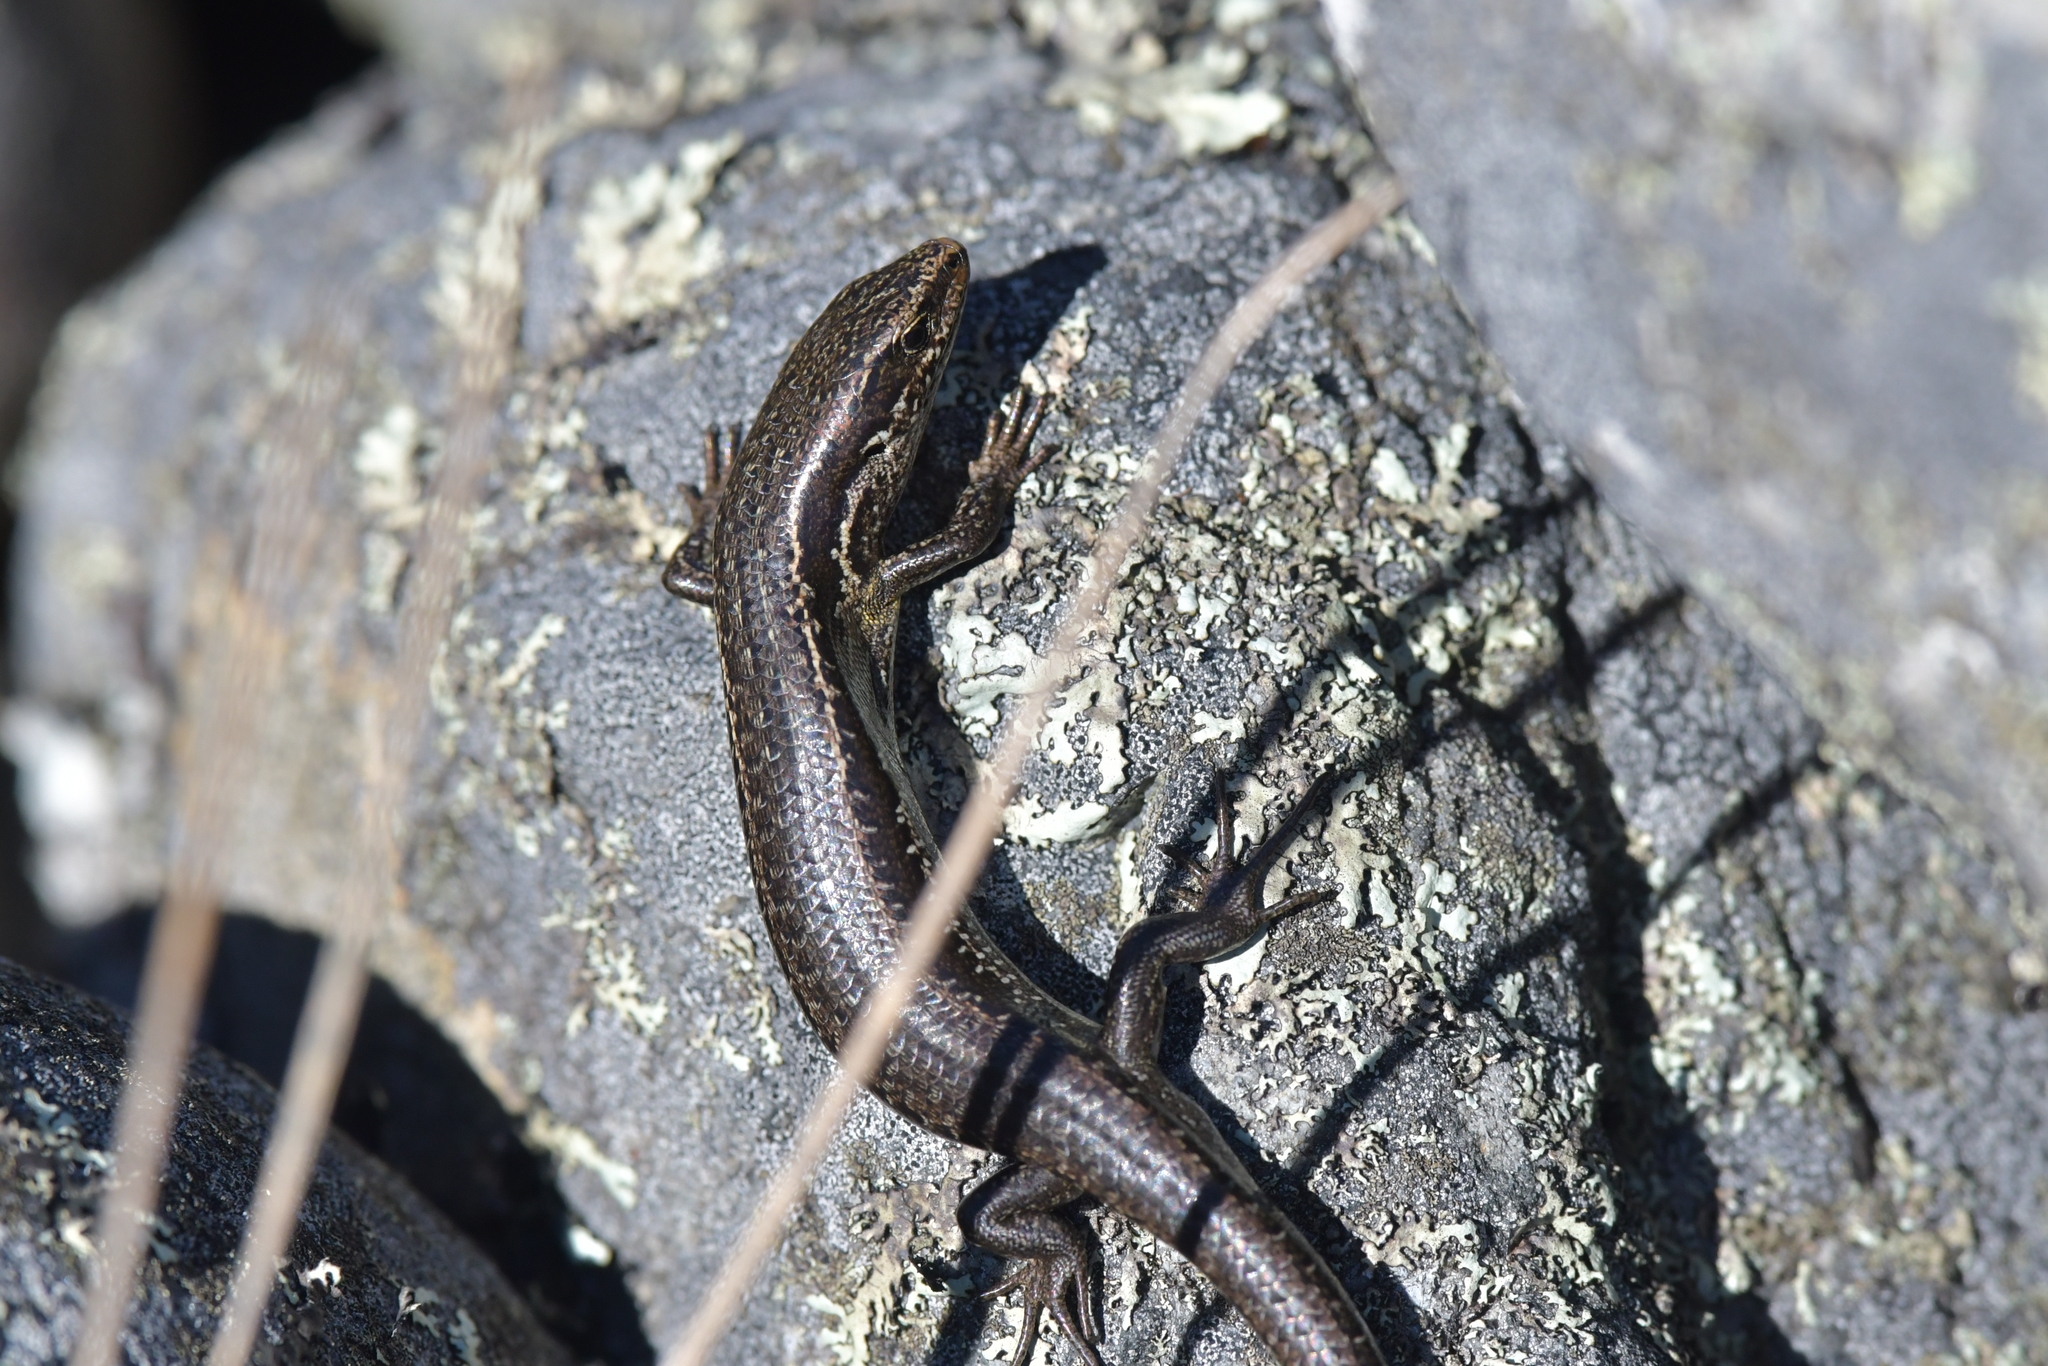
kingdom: Animalia
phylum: Chordata
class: Squamata
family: Scincidae
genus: Oligosoma
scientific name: Oligosoma polychroma
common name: Common new zealand skink
